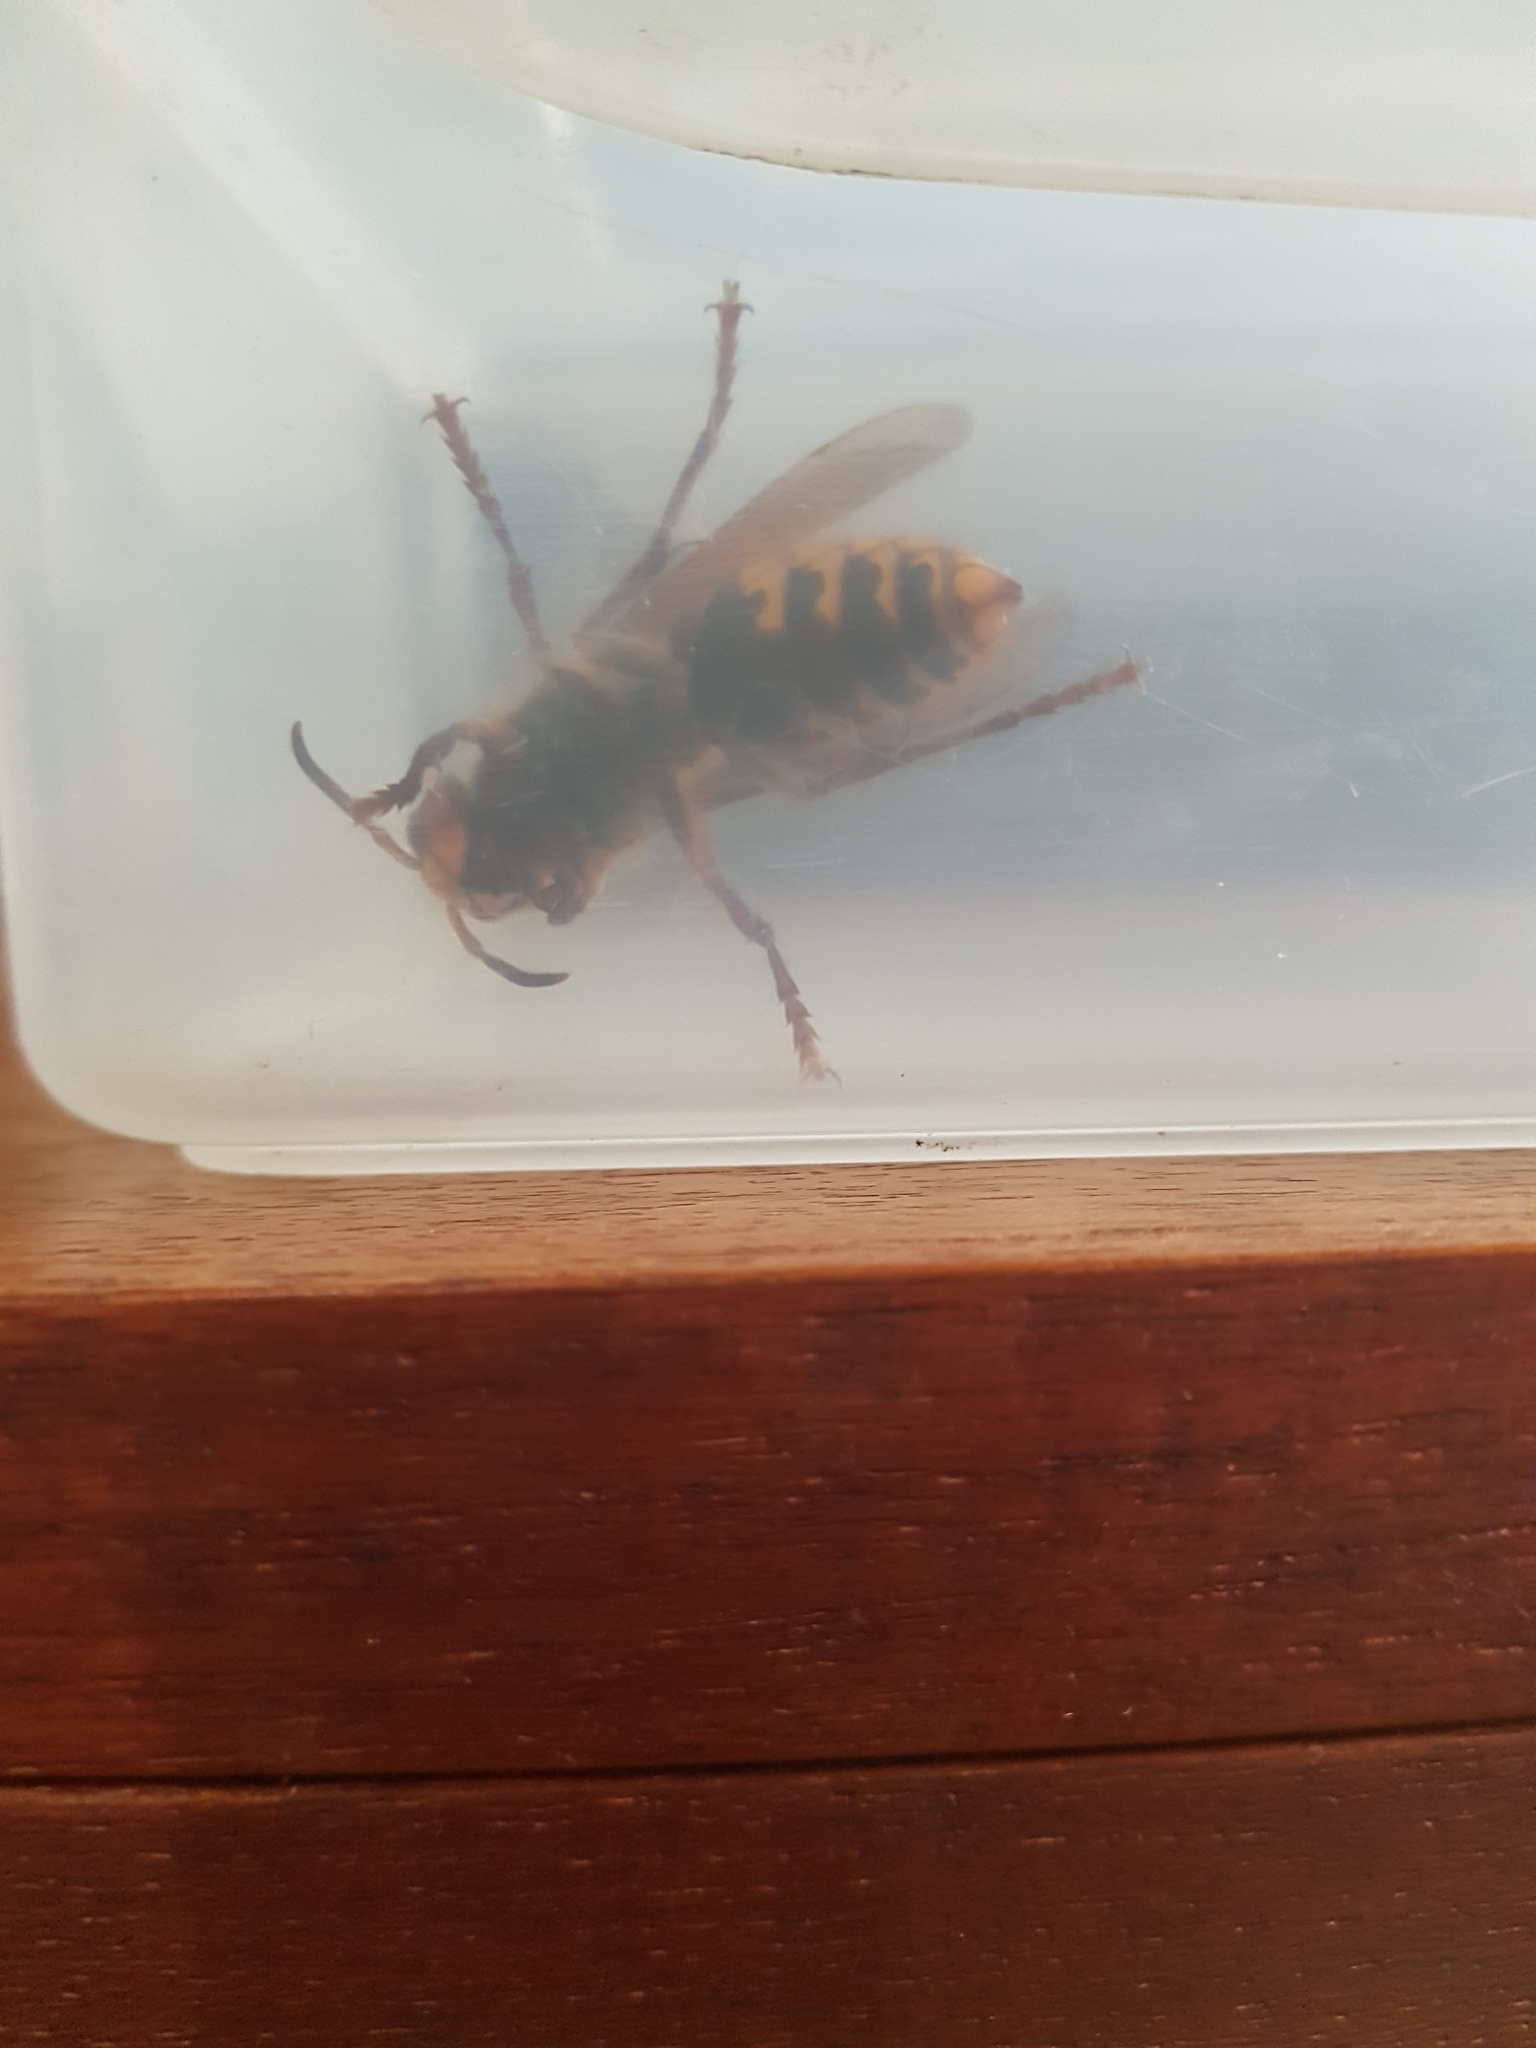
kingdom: Animalia
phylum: Arthropoda
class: Insecta
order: Hymenoptera
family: Vespidae
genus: Vespa
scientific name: Vespa crabro
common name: Hornet
